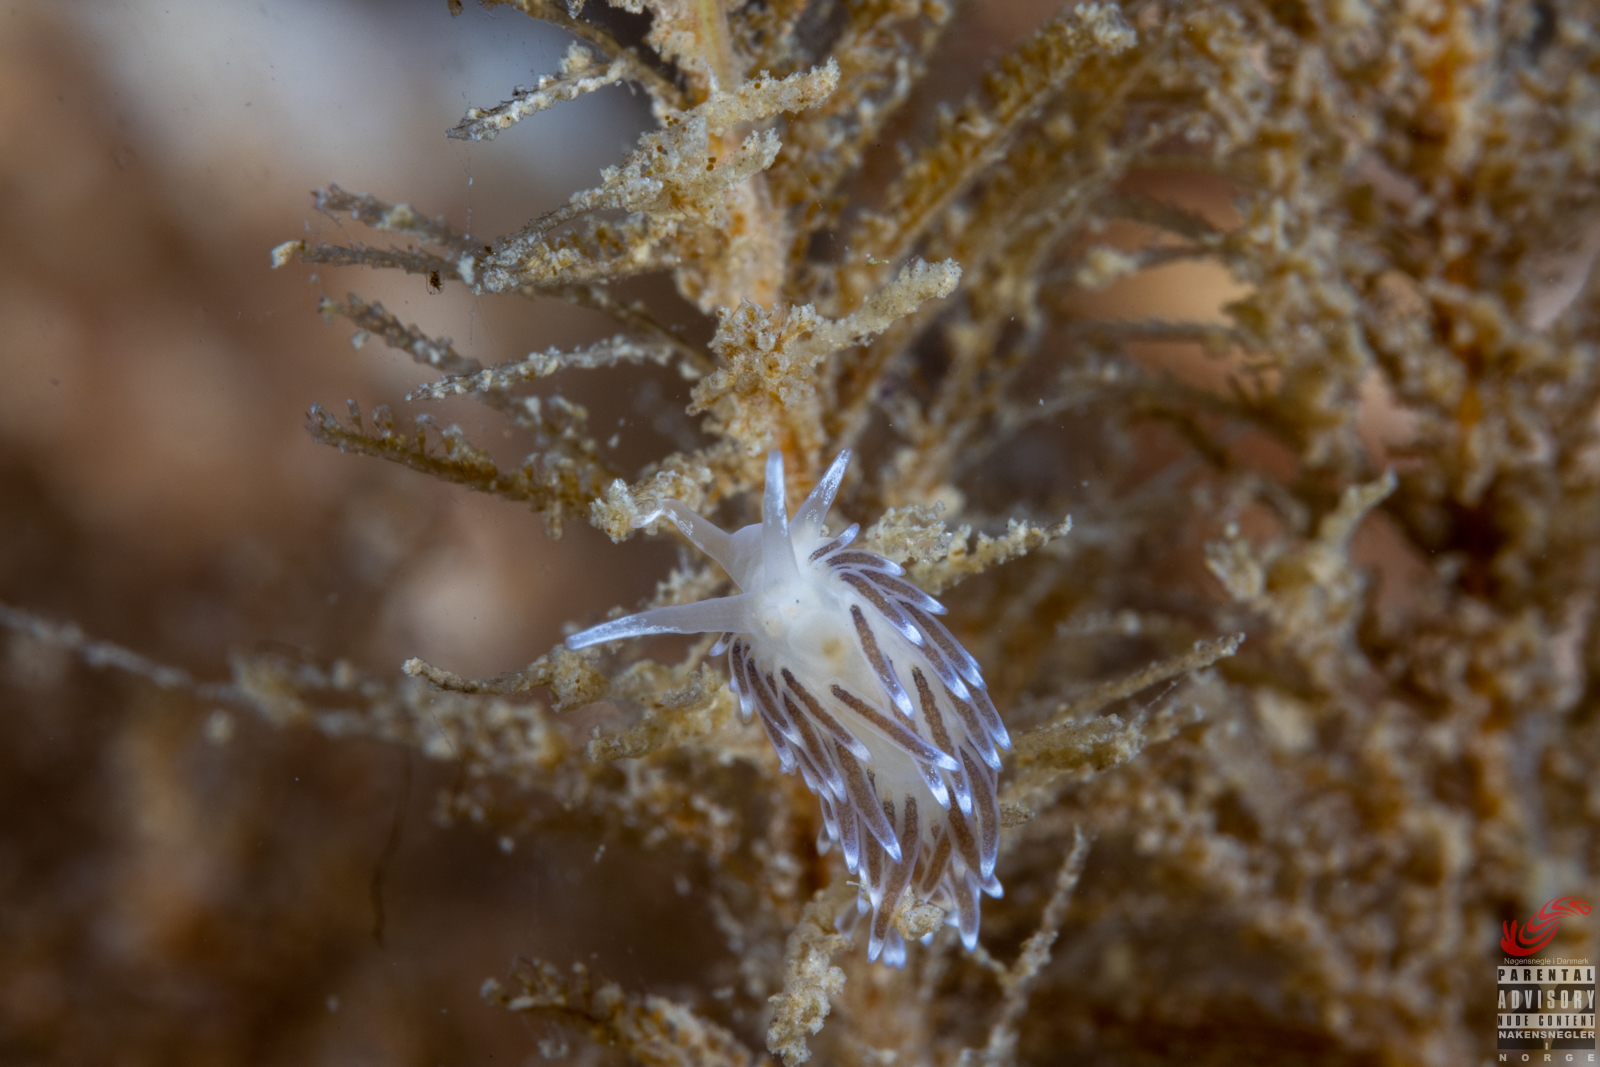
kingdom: Animalia
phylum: Mollusca
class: Gastropoda
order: Nudibranchia
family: Cuthonellidae
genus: Cuthonella
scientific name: Cuthonella concinna
